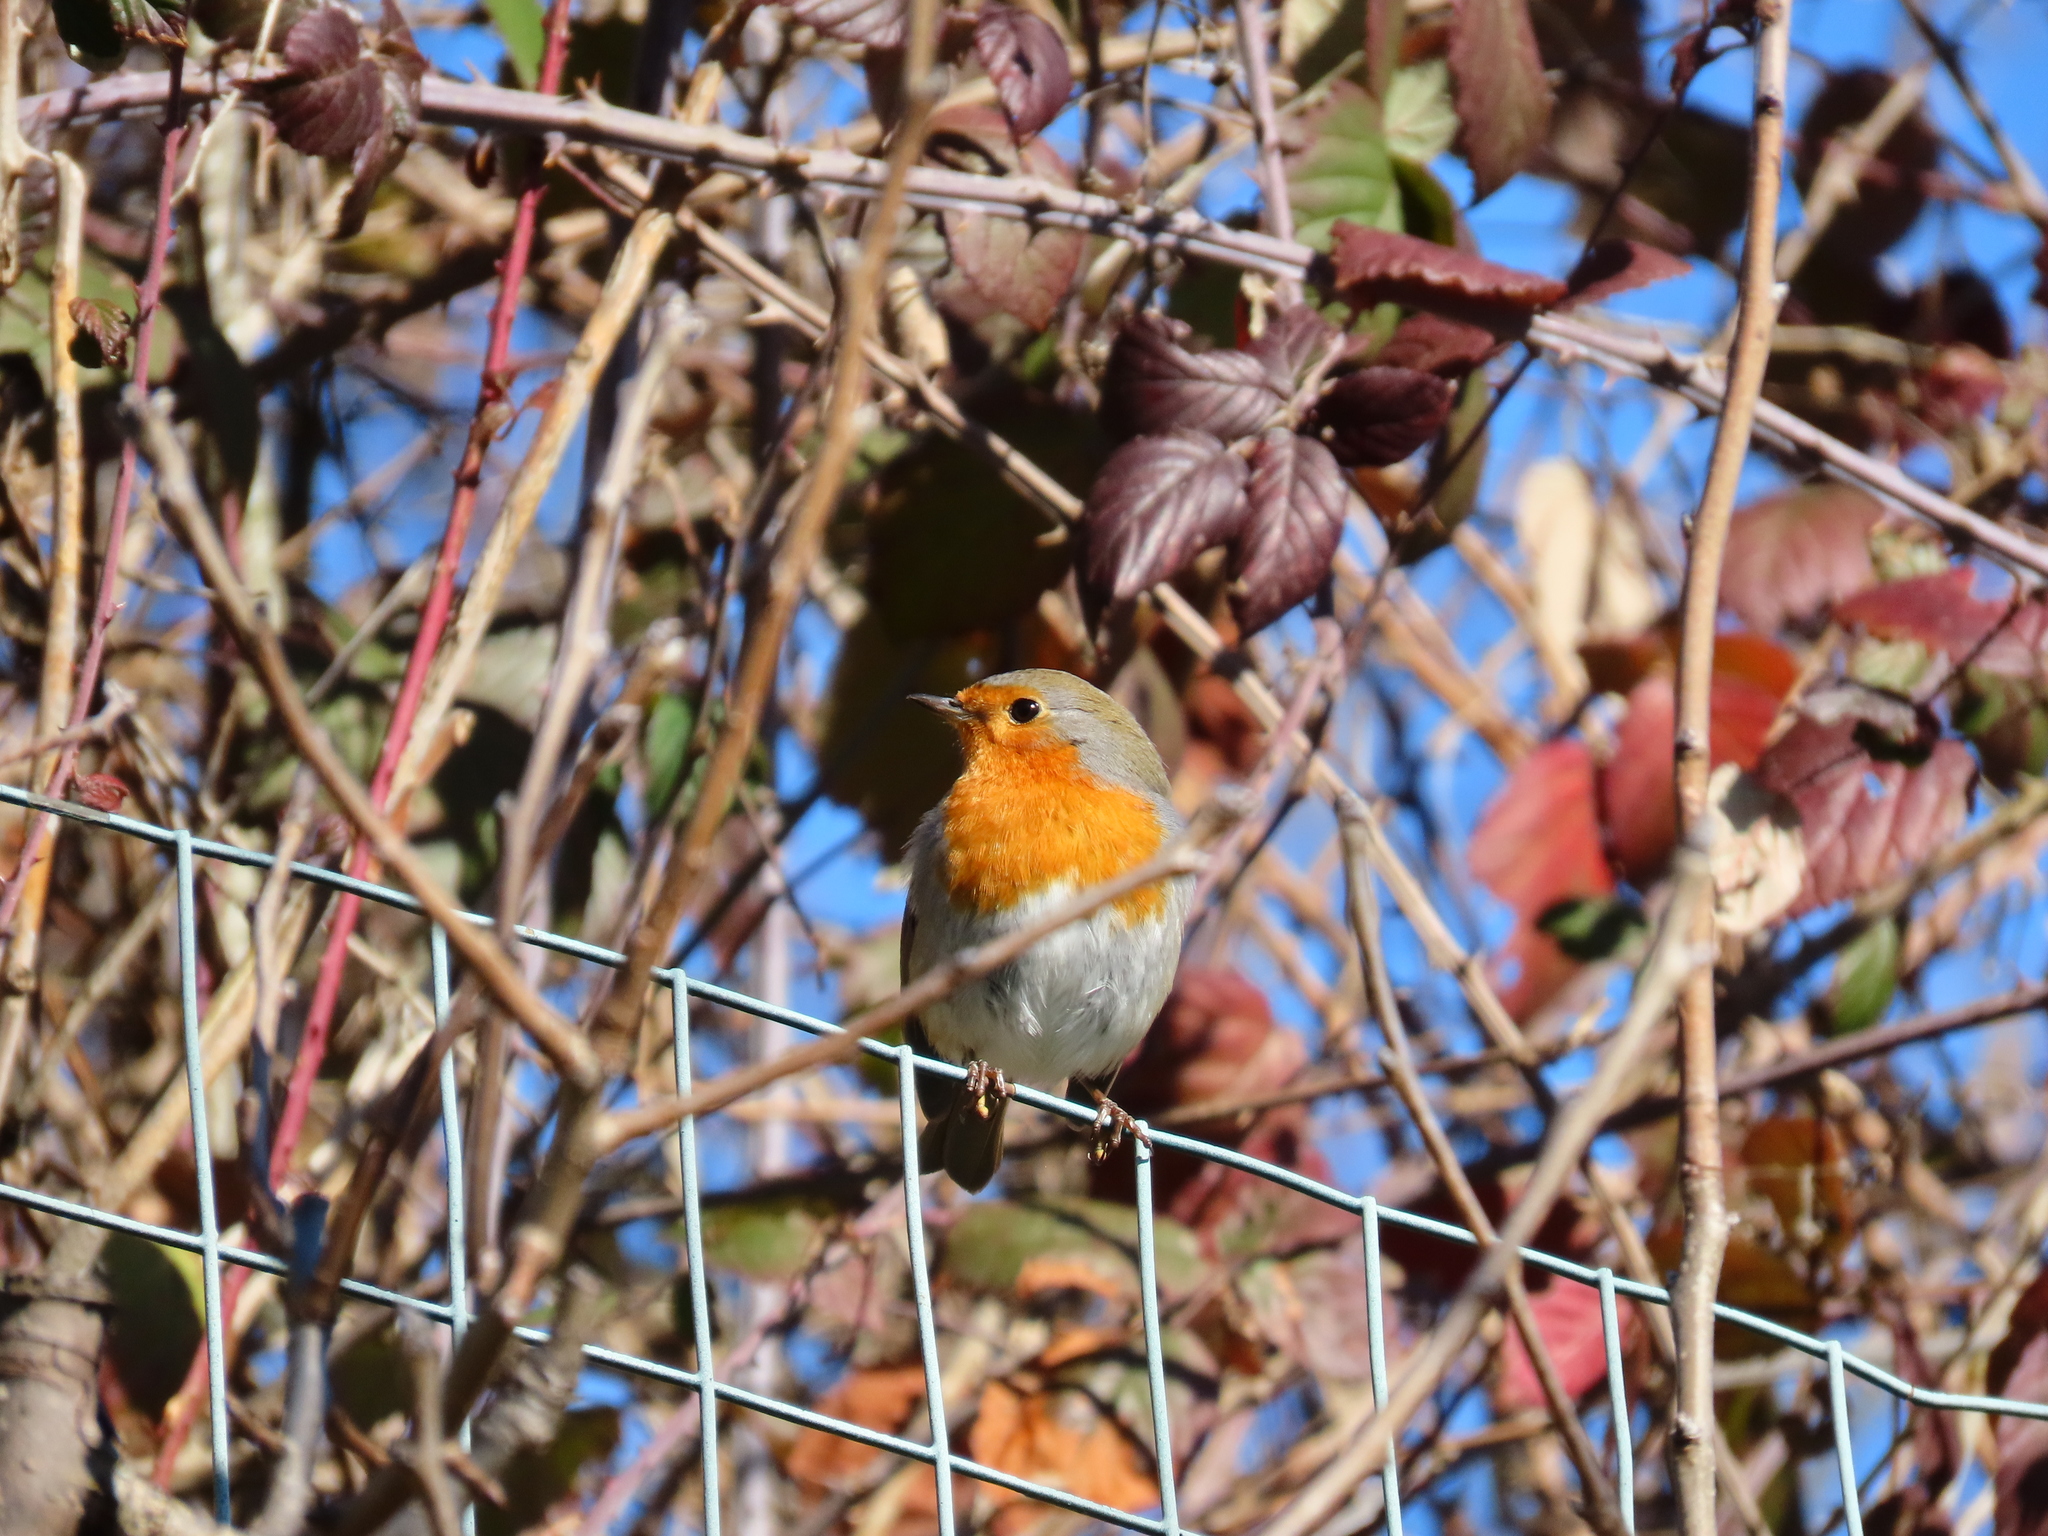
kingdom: Animalia
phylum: Chordata
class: Aves
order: Passeriformes
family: Muscicapidae
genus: Erithacus
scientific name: Erithacus rubecula
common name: European robin
